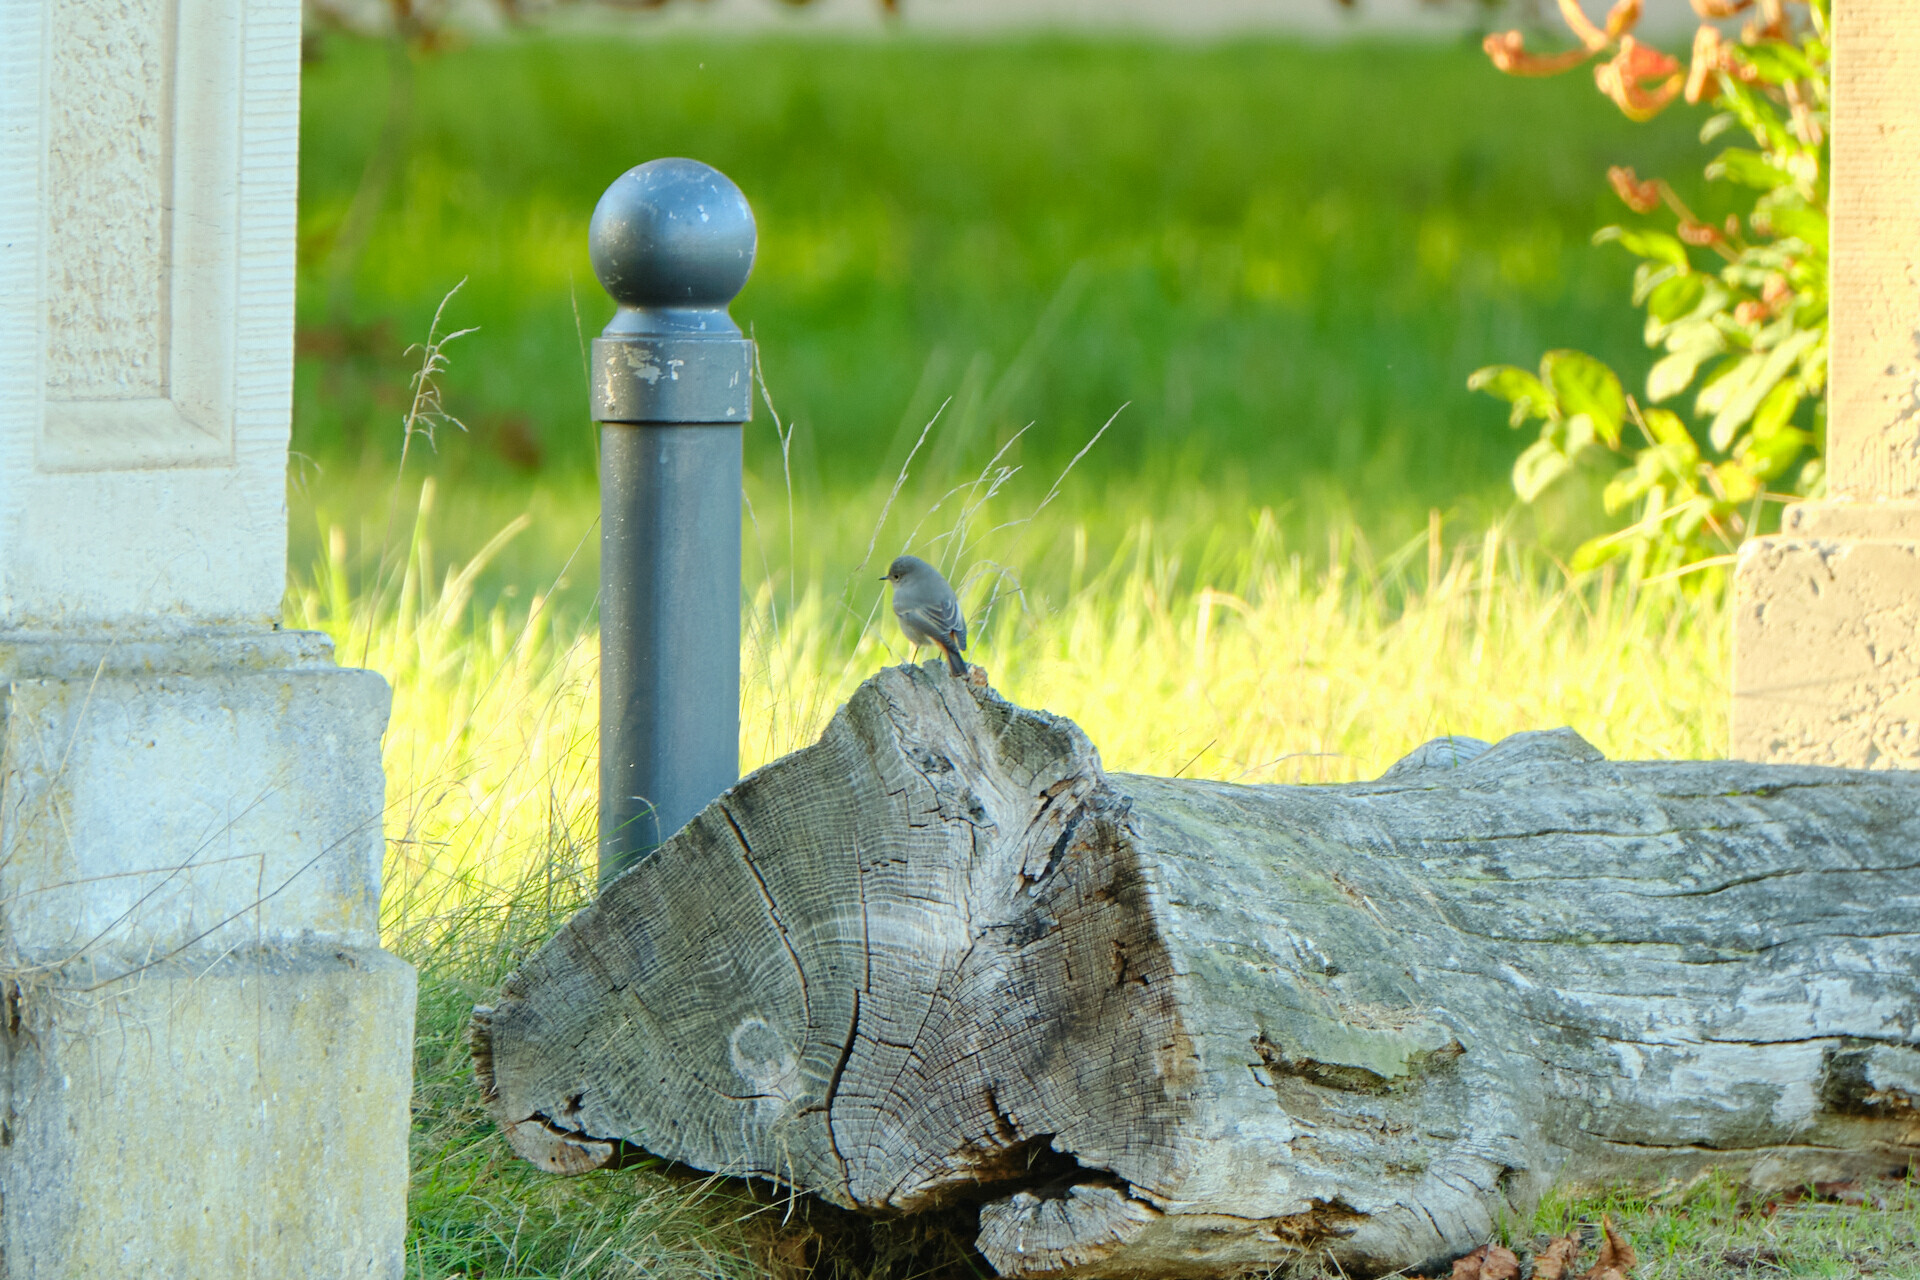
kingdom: Animalia
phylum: Chordata
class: Aves
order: Passeriformes
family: Muscicapidae
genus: Phoenicurus
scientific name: Phoenicurus ochruros
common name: Black redstart
